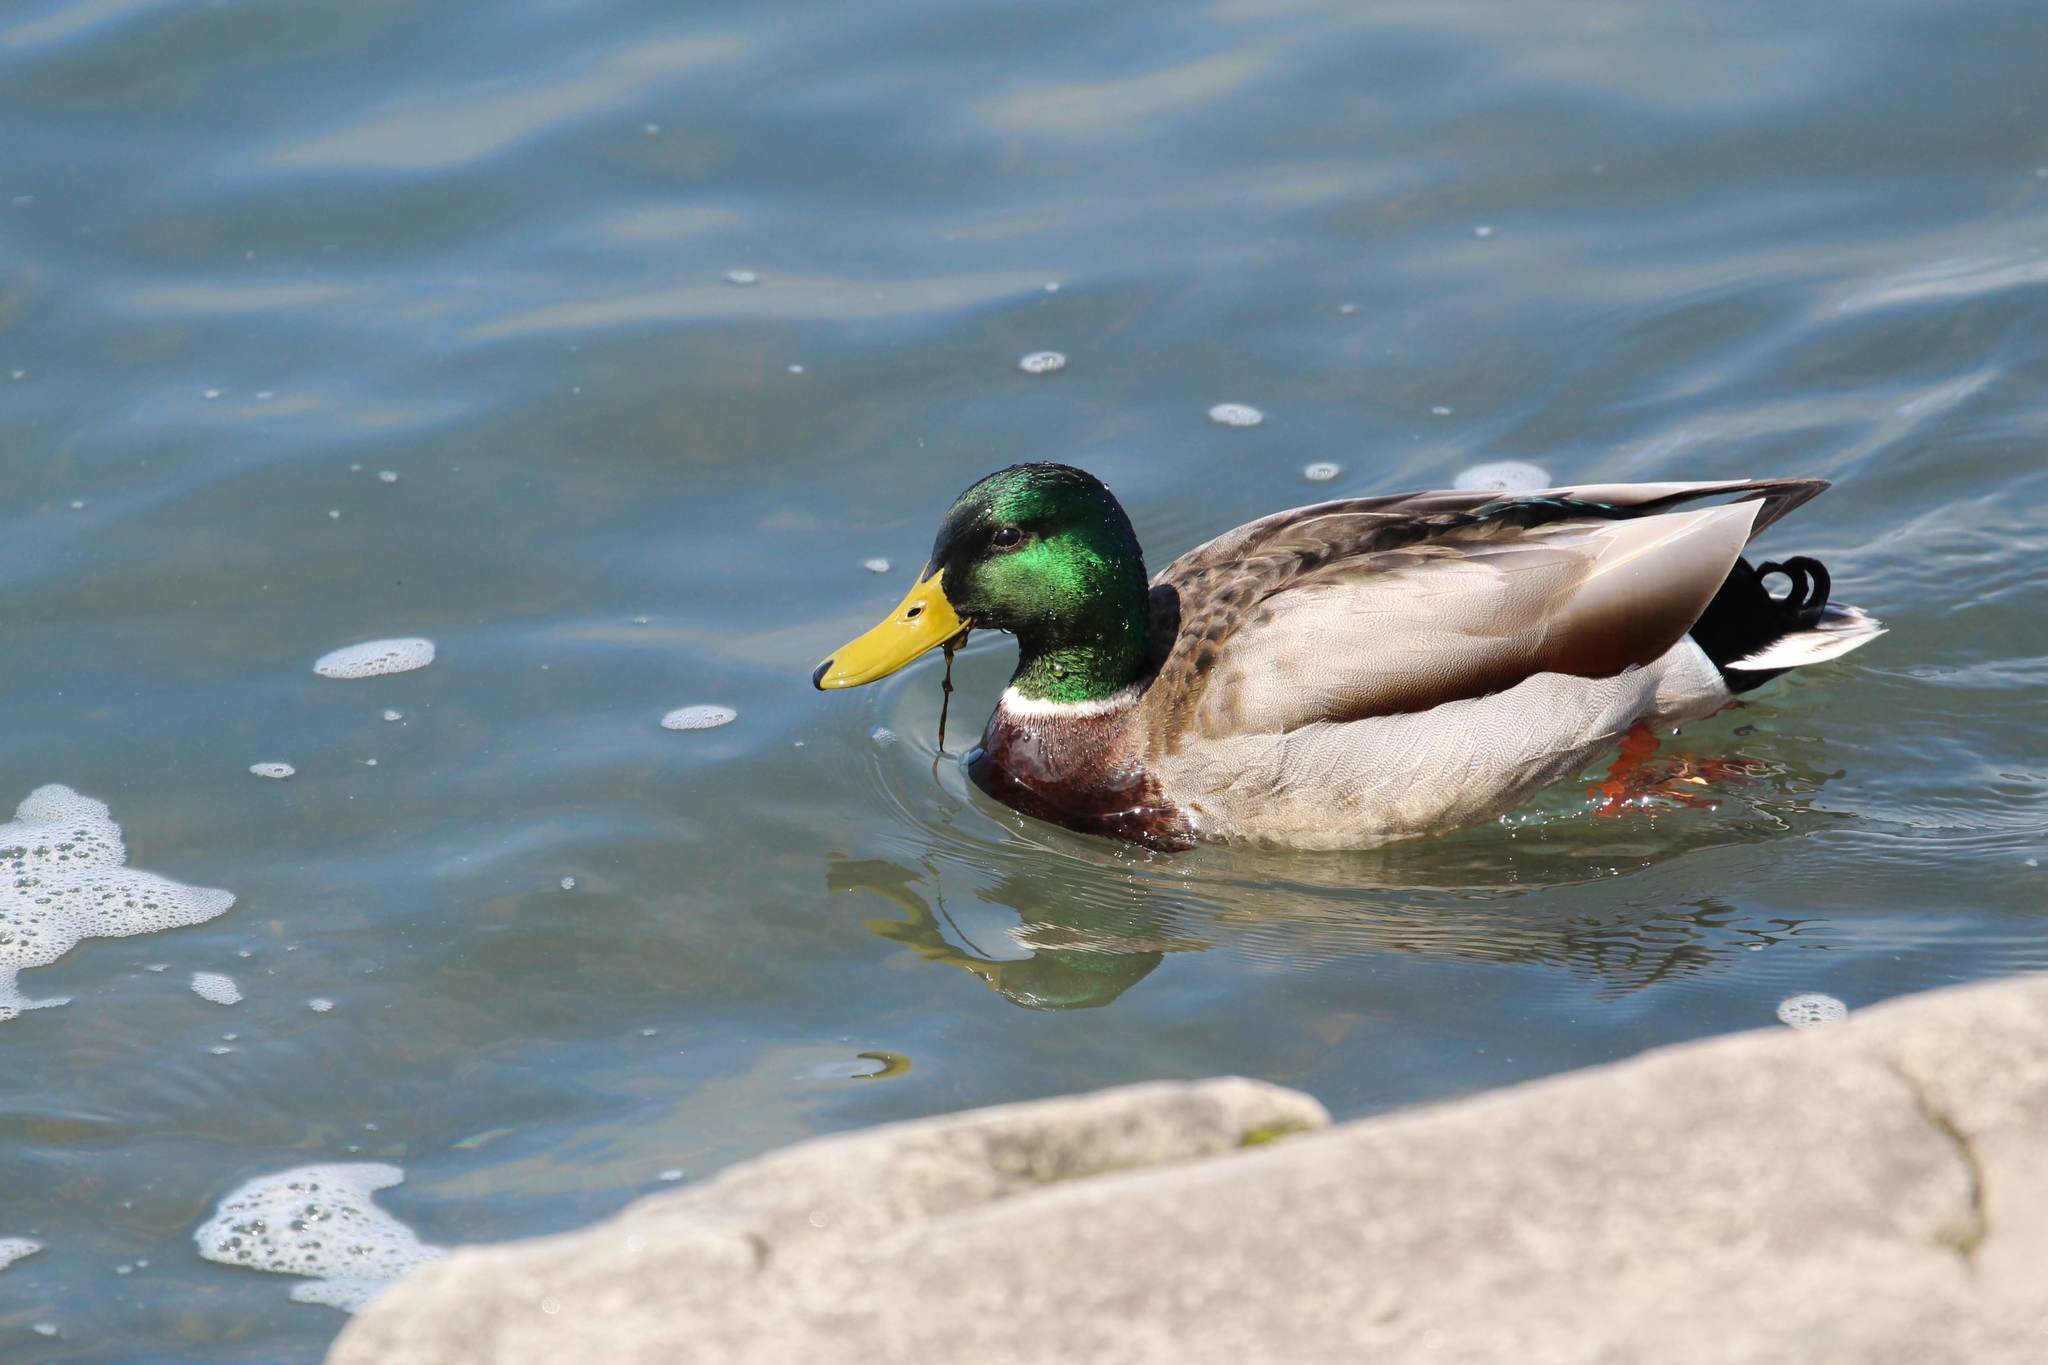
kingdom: Animalia
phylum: Chordata
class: Aves
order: Anseriformes
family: Anatidae
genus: Anas
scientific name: Anas platyrhynchos
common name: Mallard
